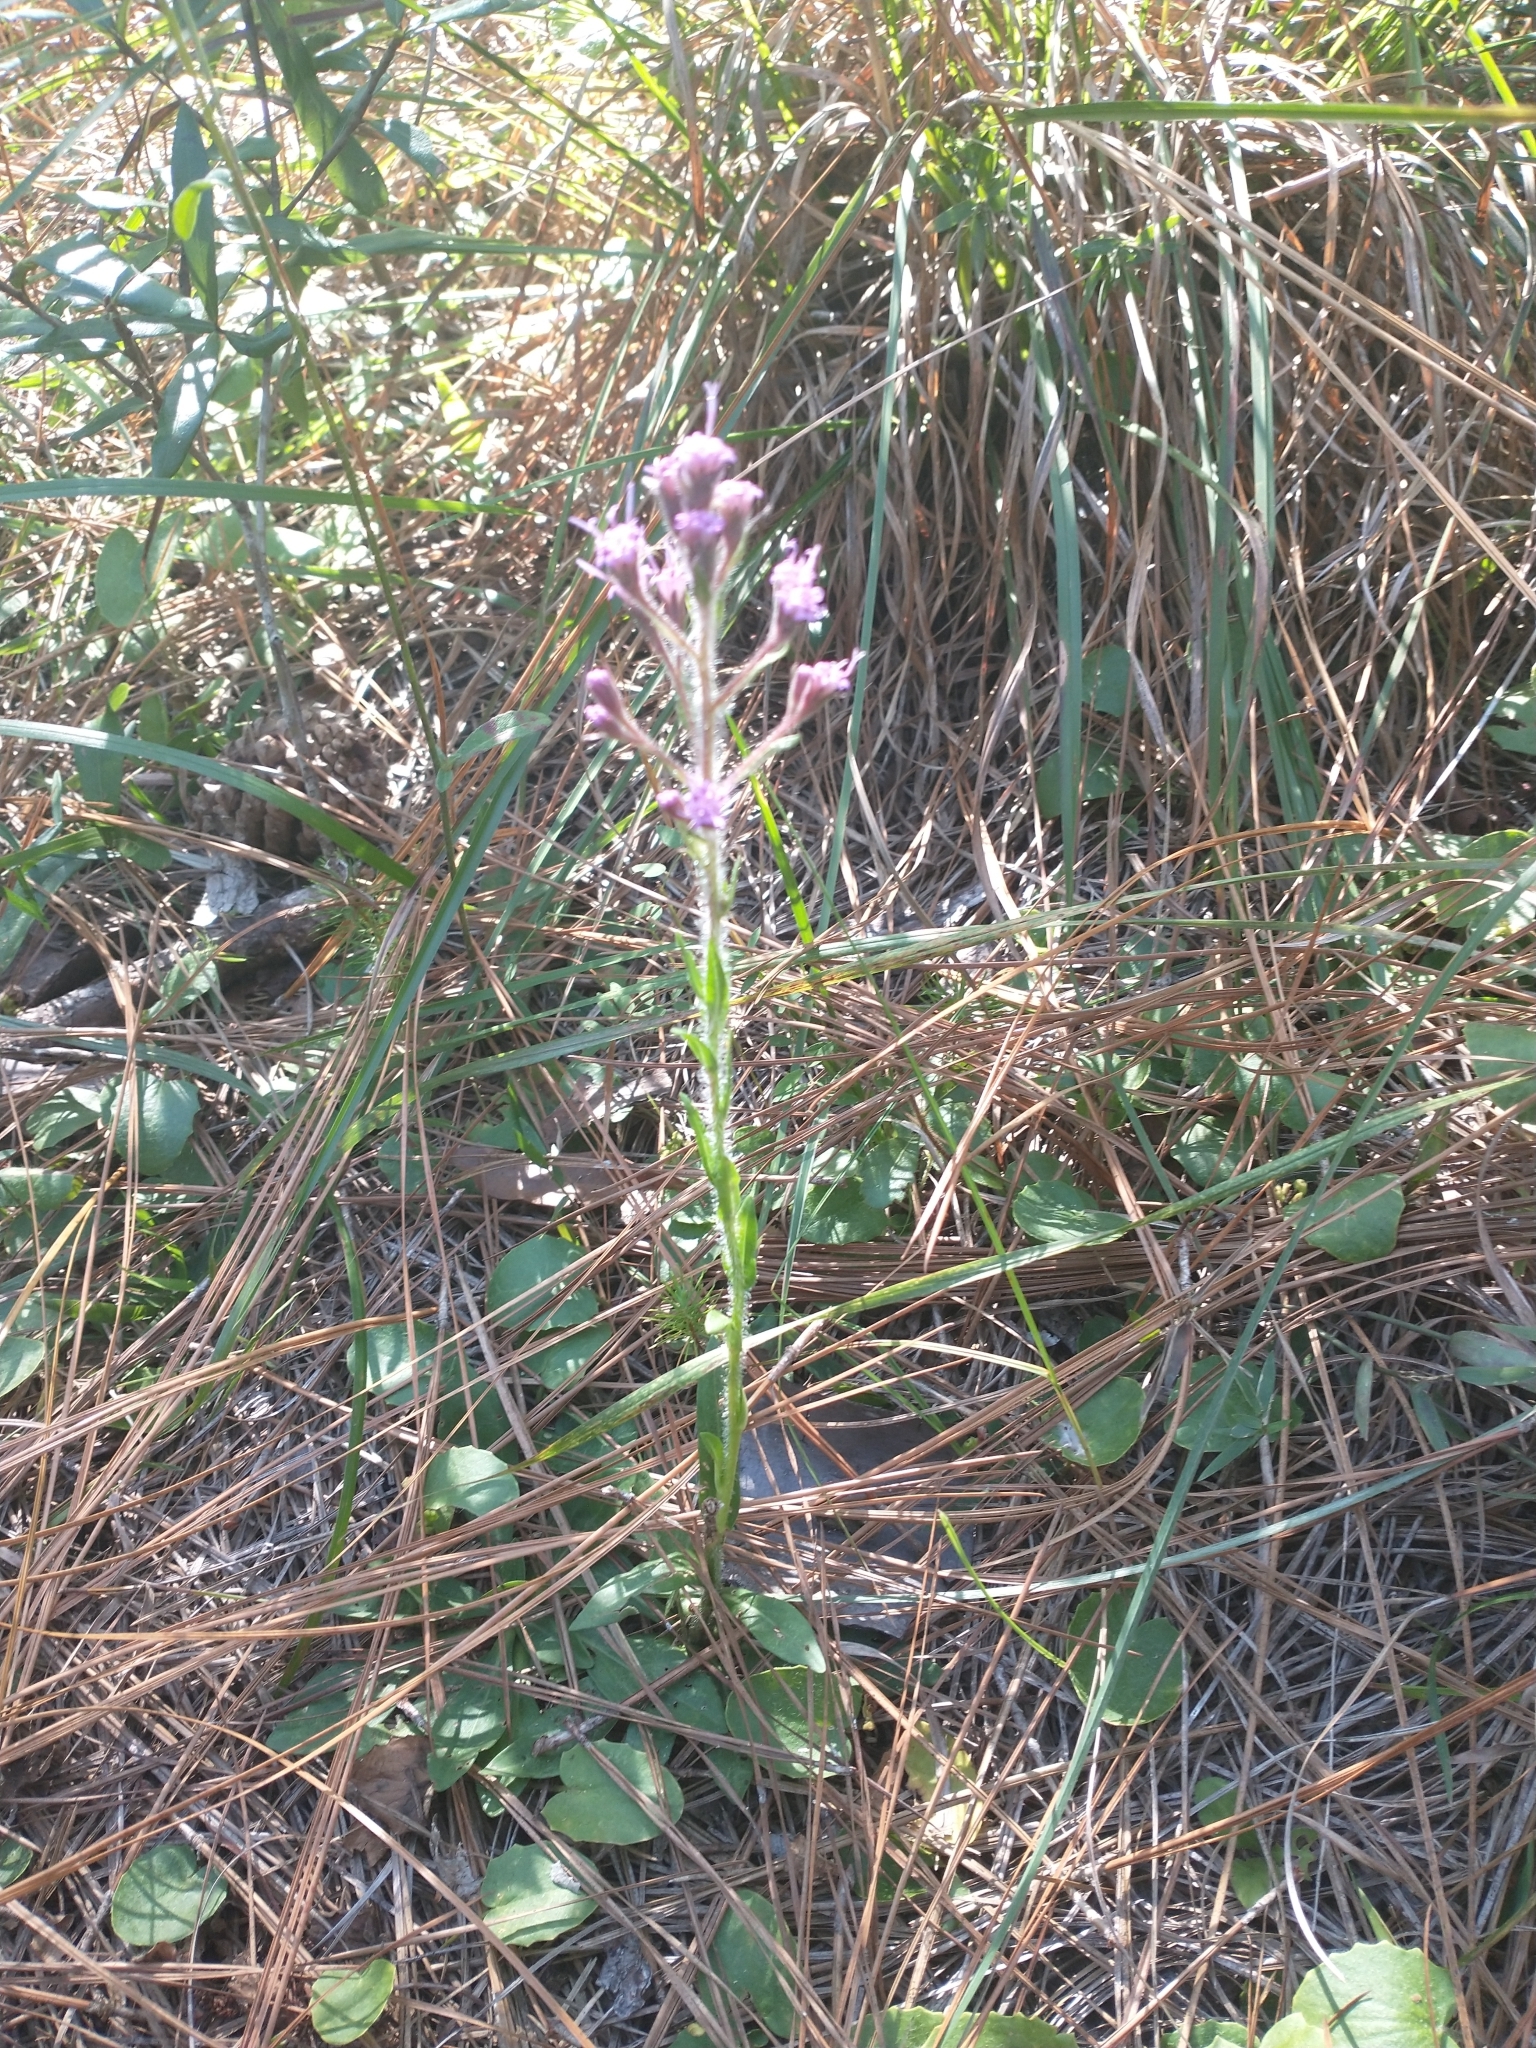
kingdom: Plantae
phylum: Tracheophyta
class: Magnoliopsida
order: Asterales
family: Asteraceae
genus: Carphephorus
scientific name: Carphephorus paniculatus
